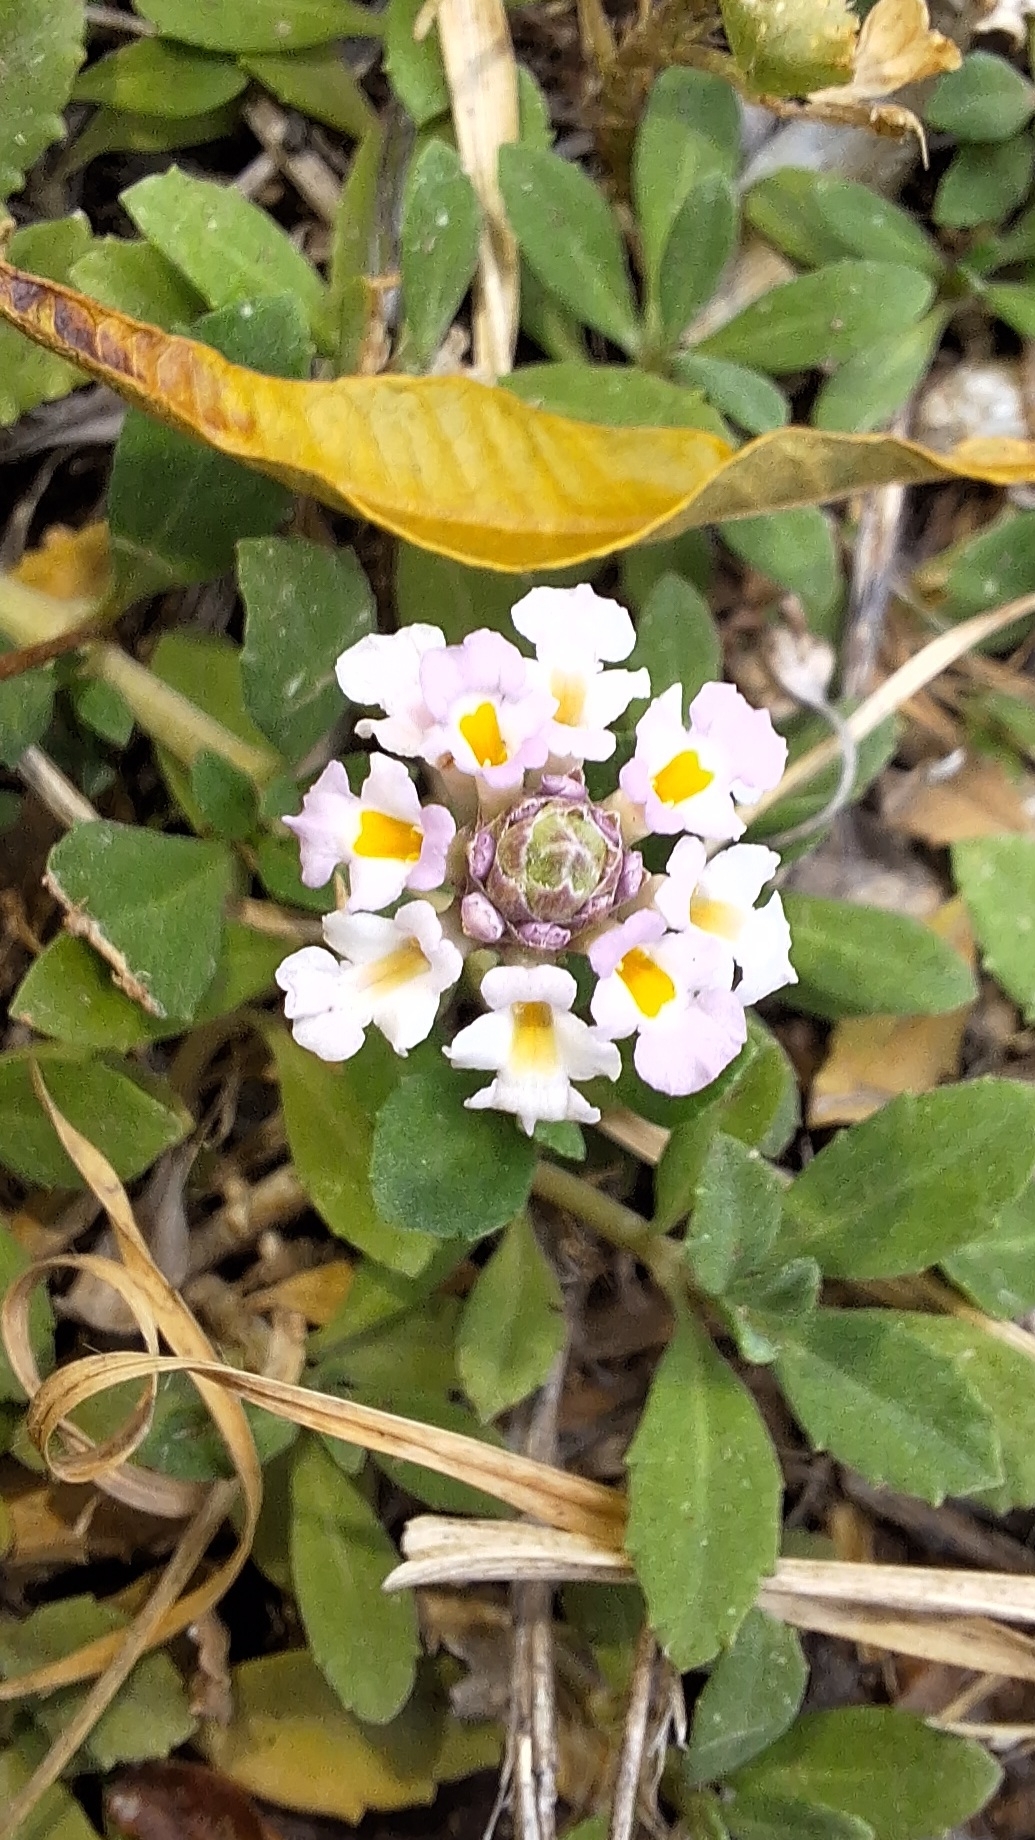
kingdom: Plantae
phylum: Tracheophyta
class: Magnoliopsida
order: Lamiales
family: Verbenaceae
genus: Phyla
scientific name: Phyla nodiflora
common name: Frogfruit
